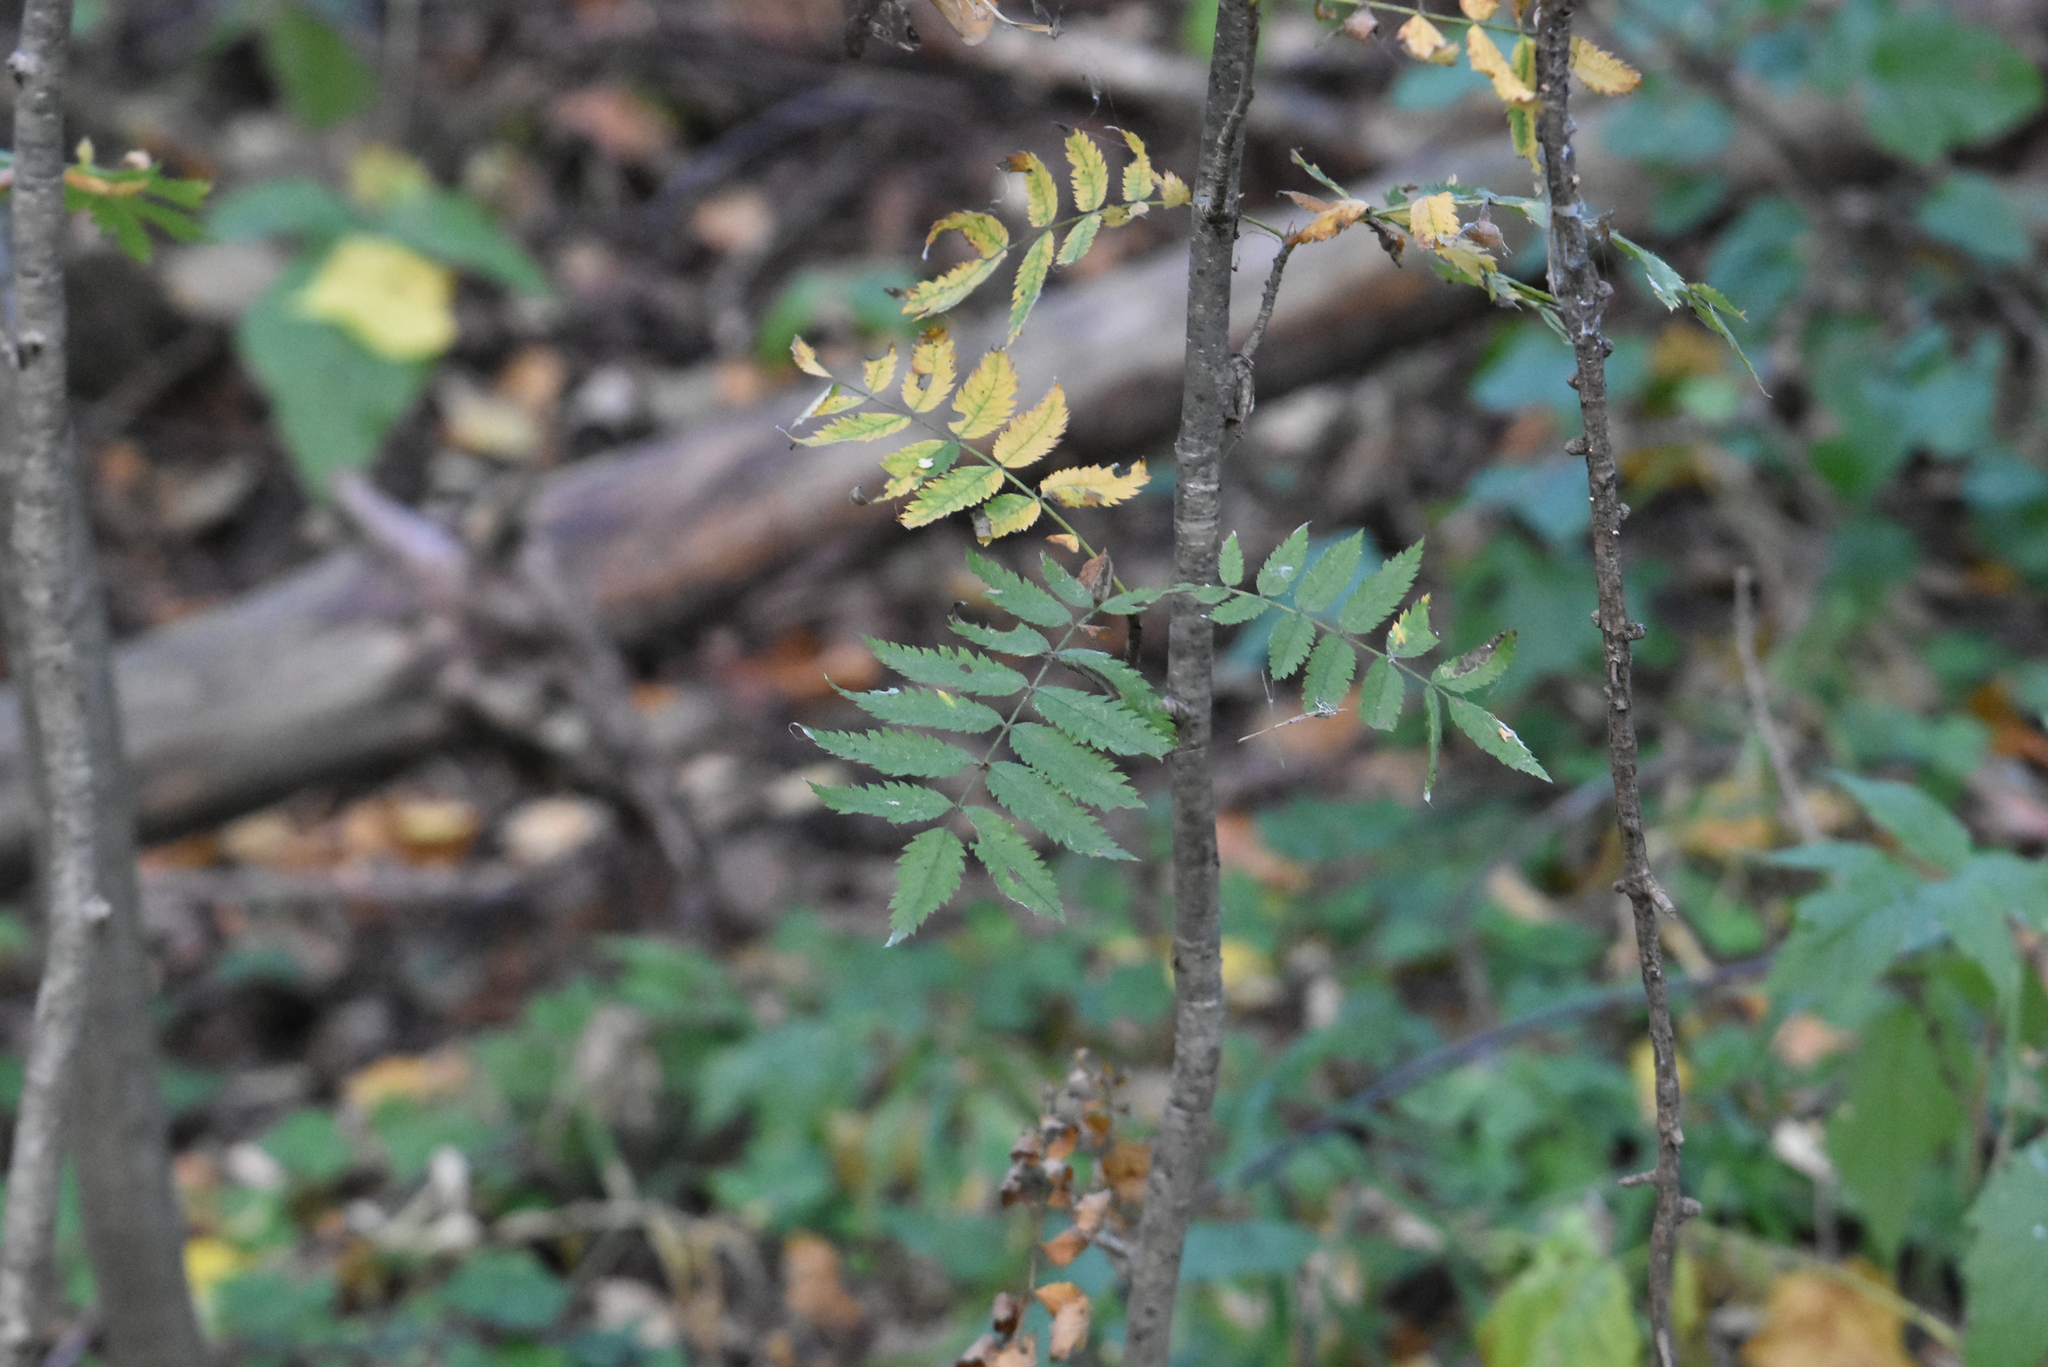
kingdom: Plantae
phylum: Tracheophyta
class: Magnoliopsida
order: Rosales
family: Rosaceae
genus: Sorbus
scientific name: Sorbus aucuparia
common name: Rowan
